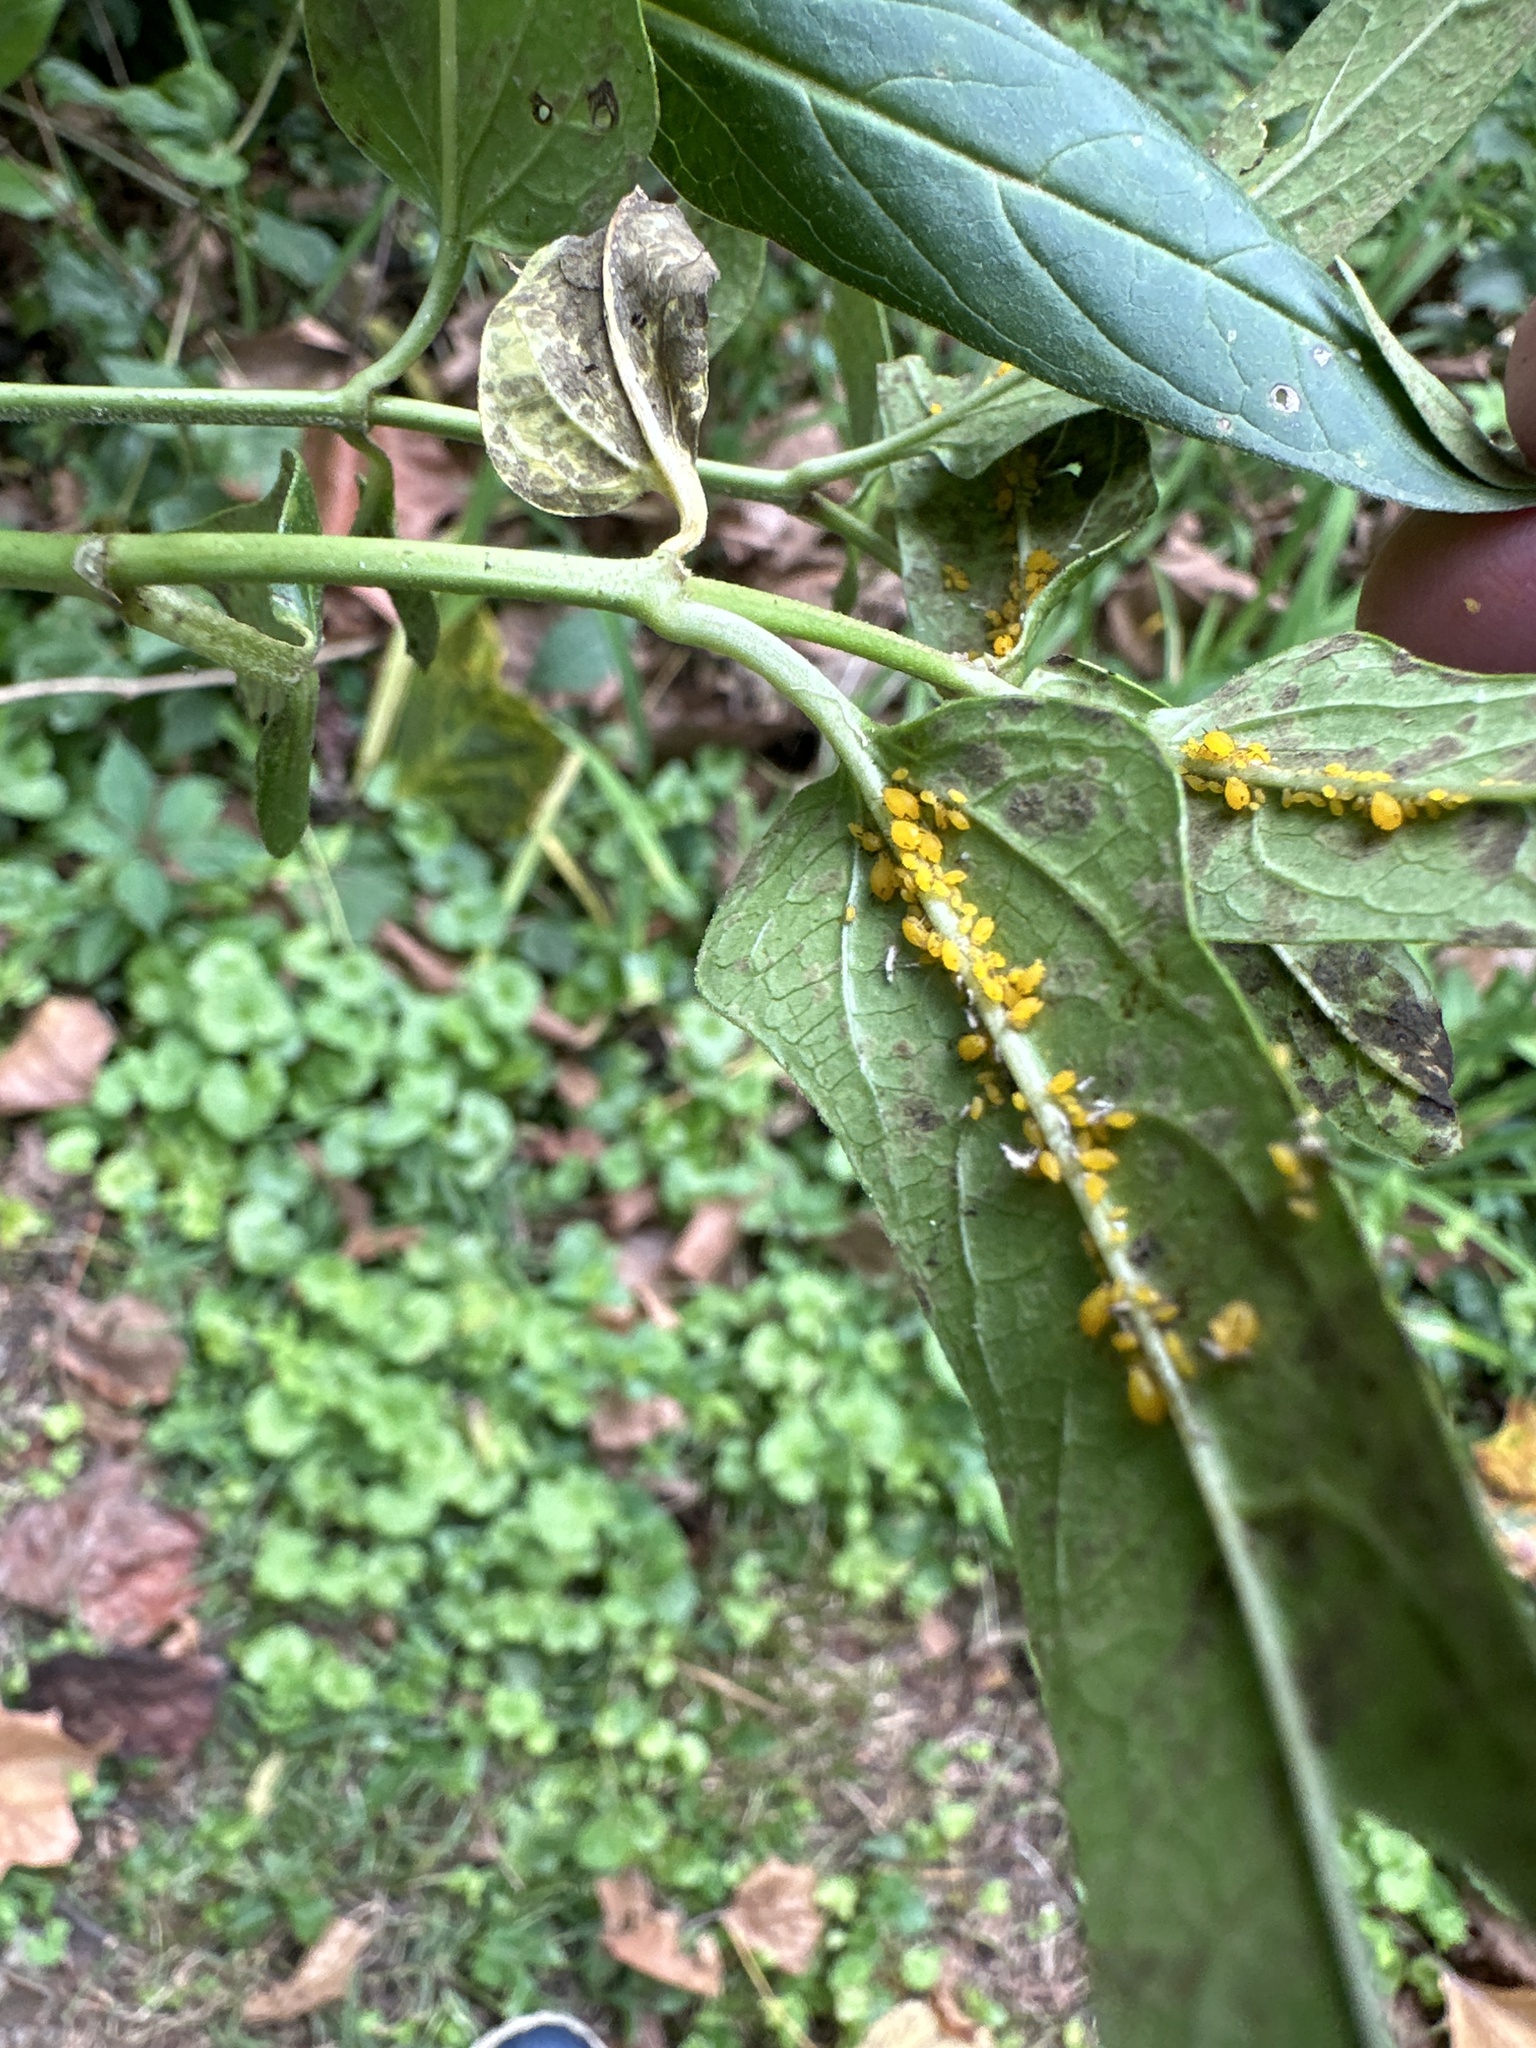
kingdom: Animalia
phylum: Arthropoda
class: Insecta
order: Hemiptera
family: Aphididae
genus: Aphis
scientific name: Aphis nerii
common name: Oleander aphid
